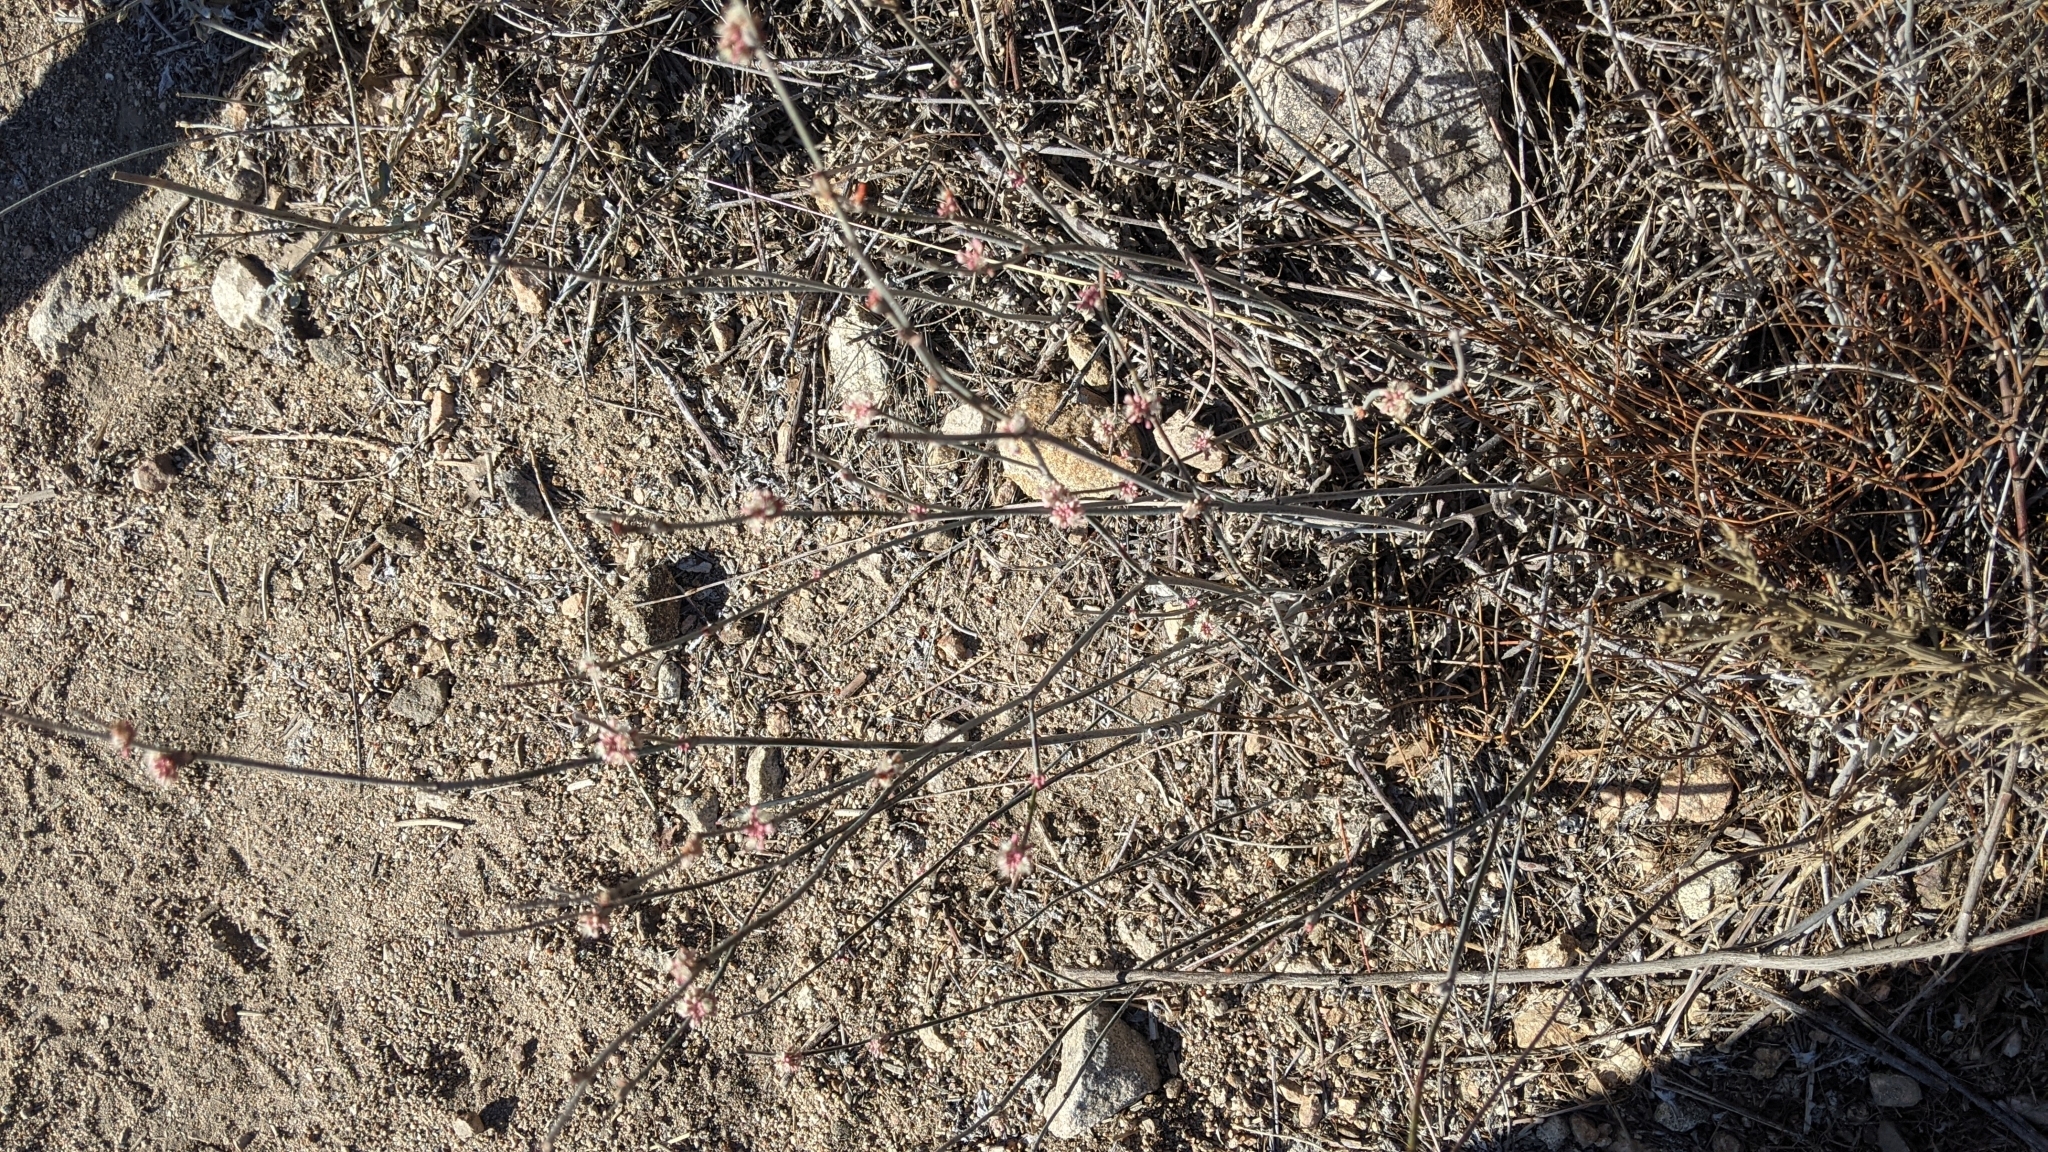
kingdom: Plantae
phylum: Tracheophyta
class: Magnoliopsida
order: Caryophyllales
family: Polygonaceae
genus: Eriogonum
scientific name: Eriogonum elongatum
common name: Long-stem wild buckwheat
